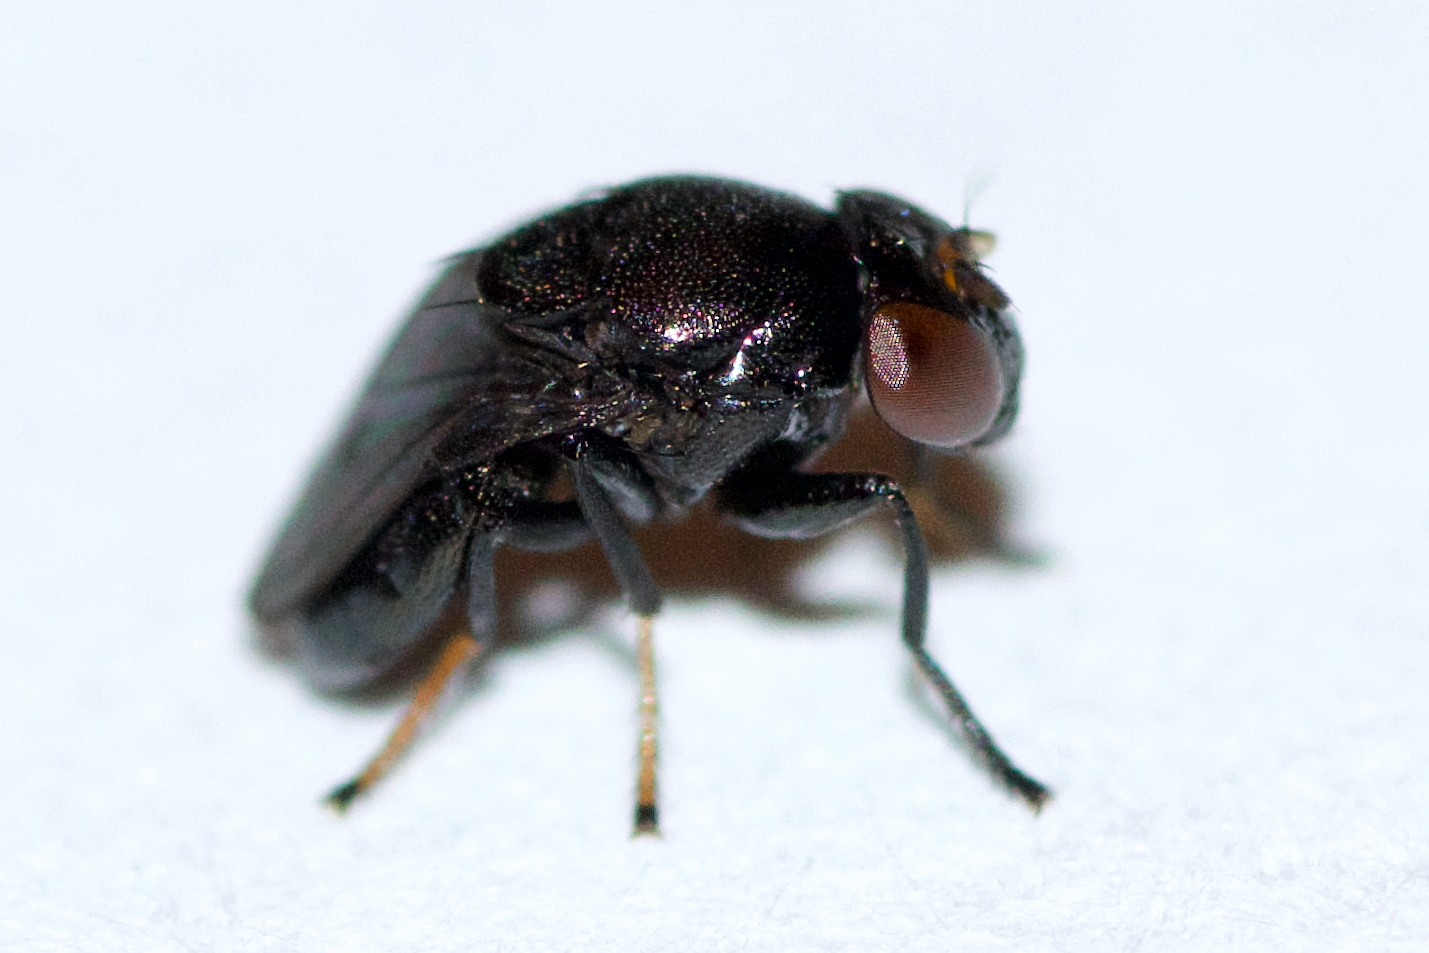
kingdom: Animalia
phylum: Arthropoda
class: Insecta
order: Diptera
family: Ephydridae
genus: Discomyza
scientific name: Discomyza incurva
